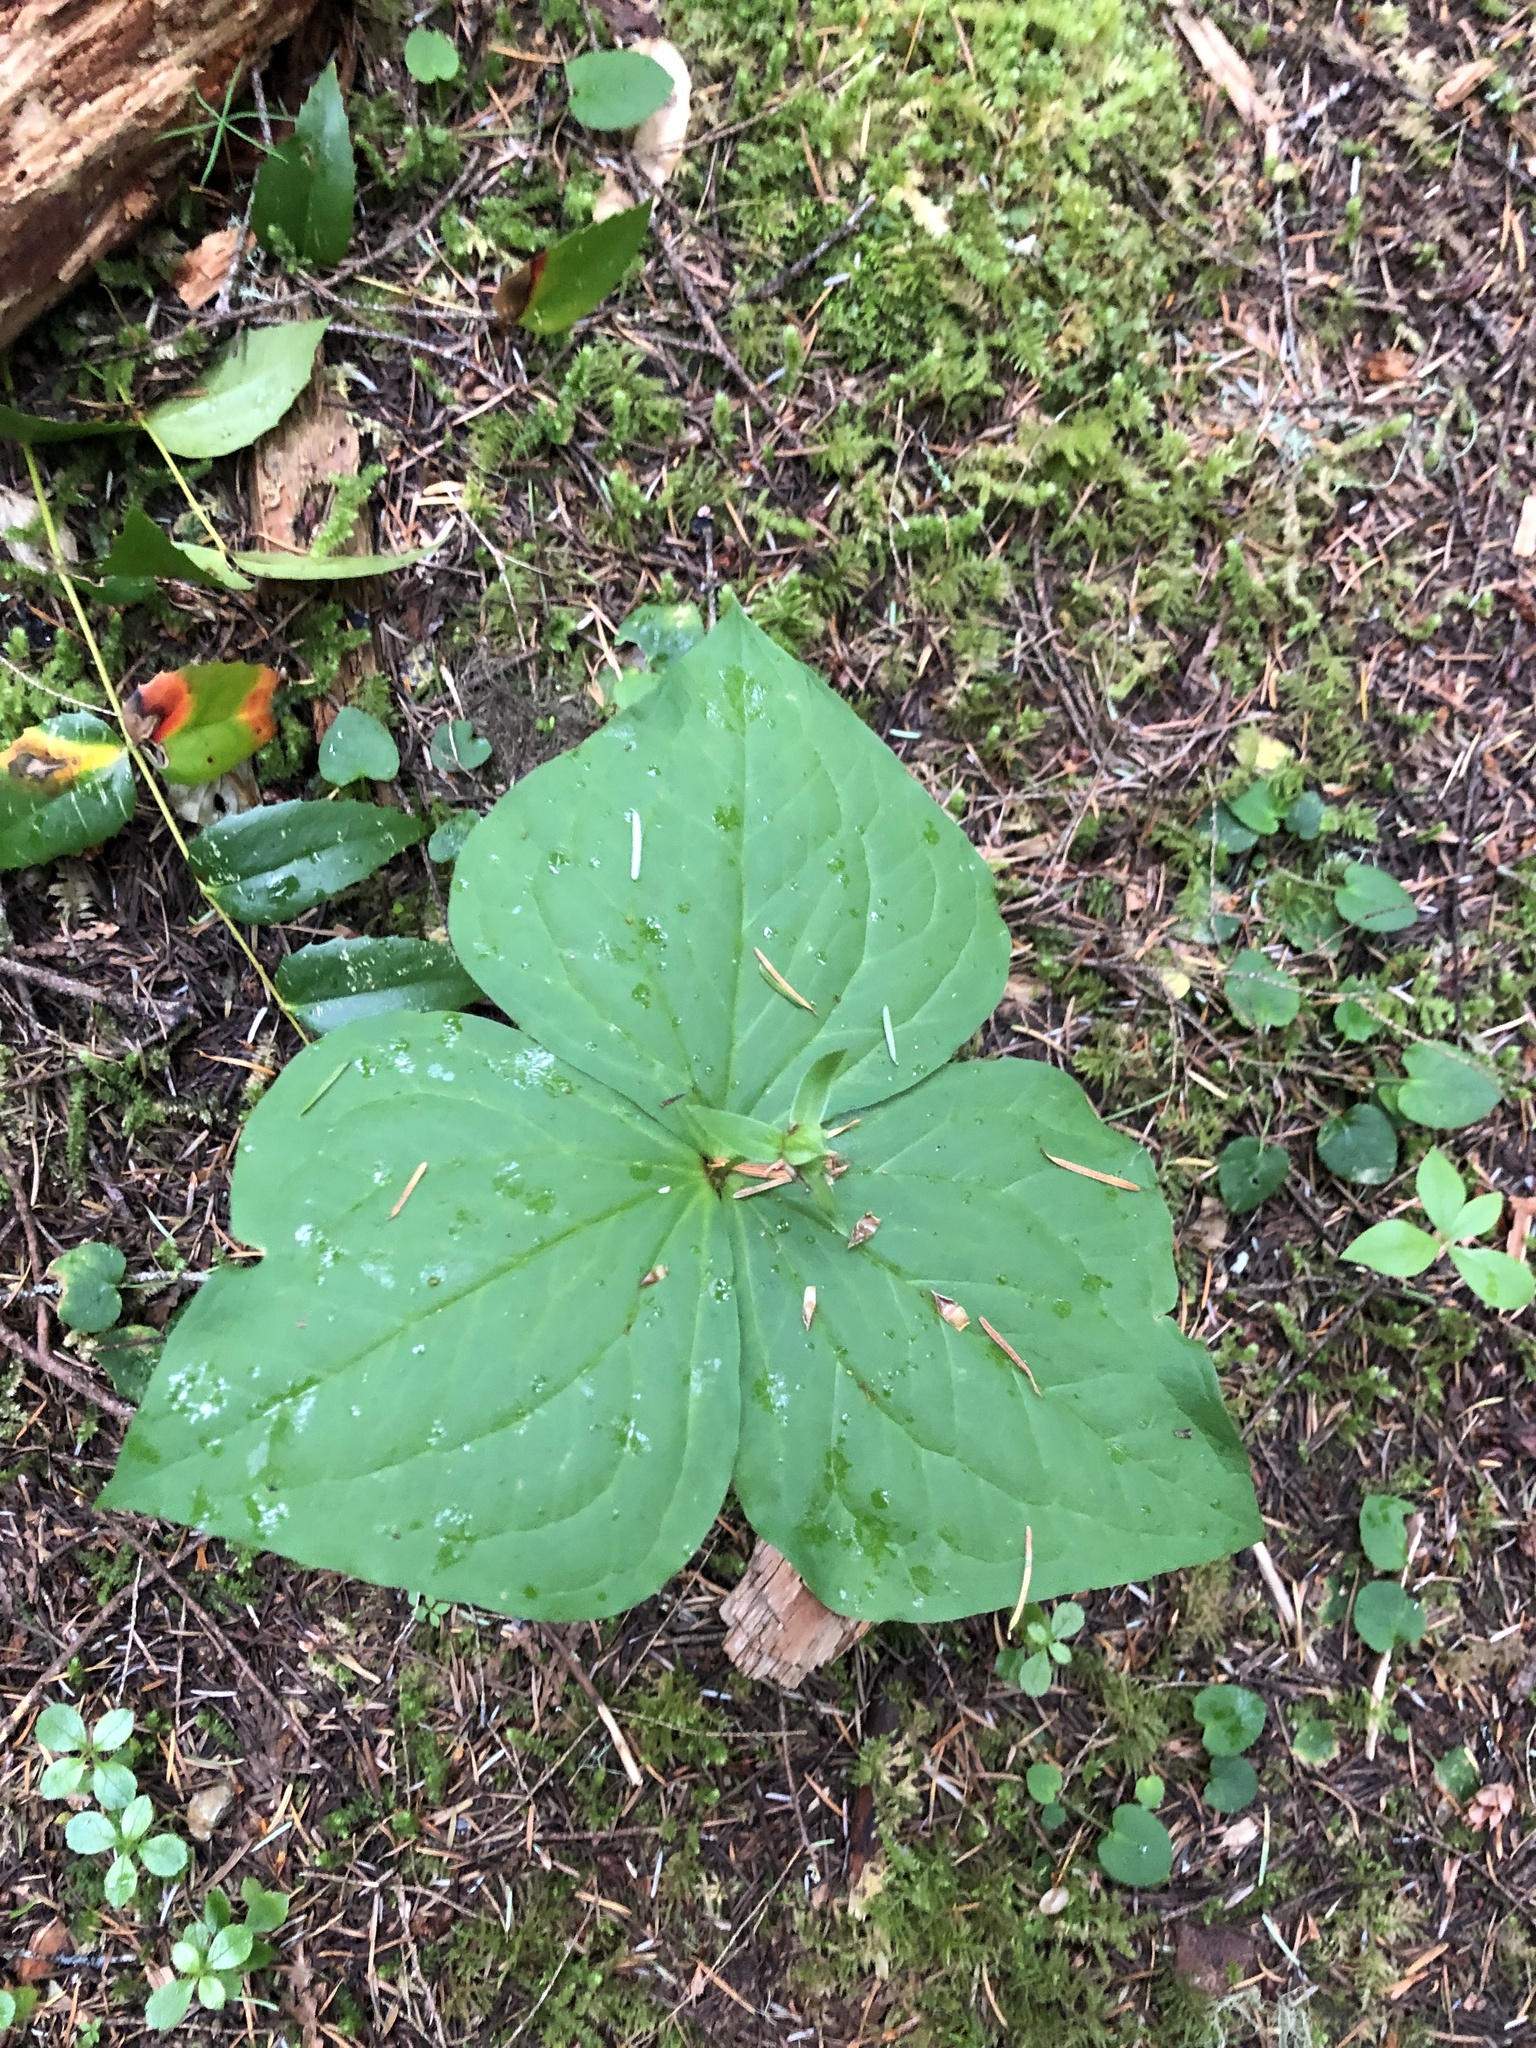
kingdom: Plantae
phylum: Tracheophyta
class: Liliopsida
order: Liliales
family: Melanthiaceae
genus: Trillium
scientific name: Trillium ovatum
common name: Pacific trillium
